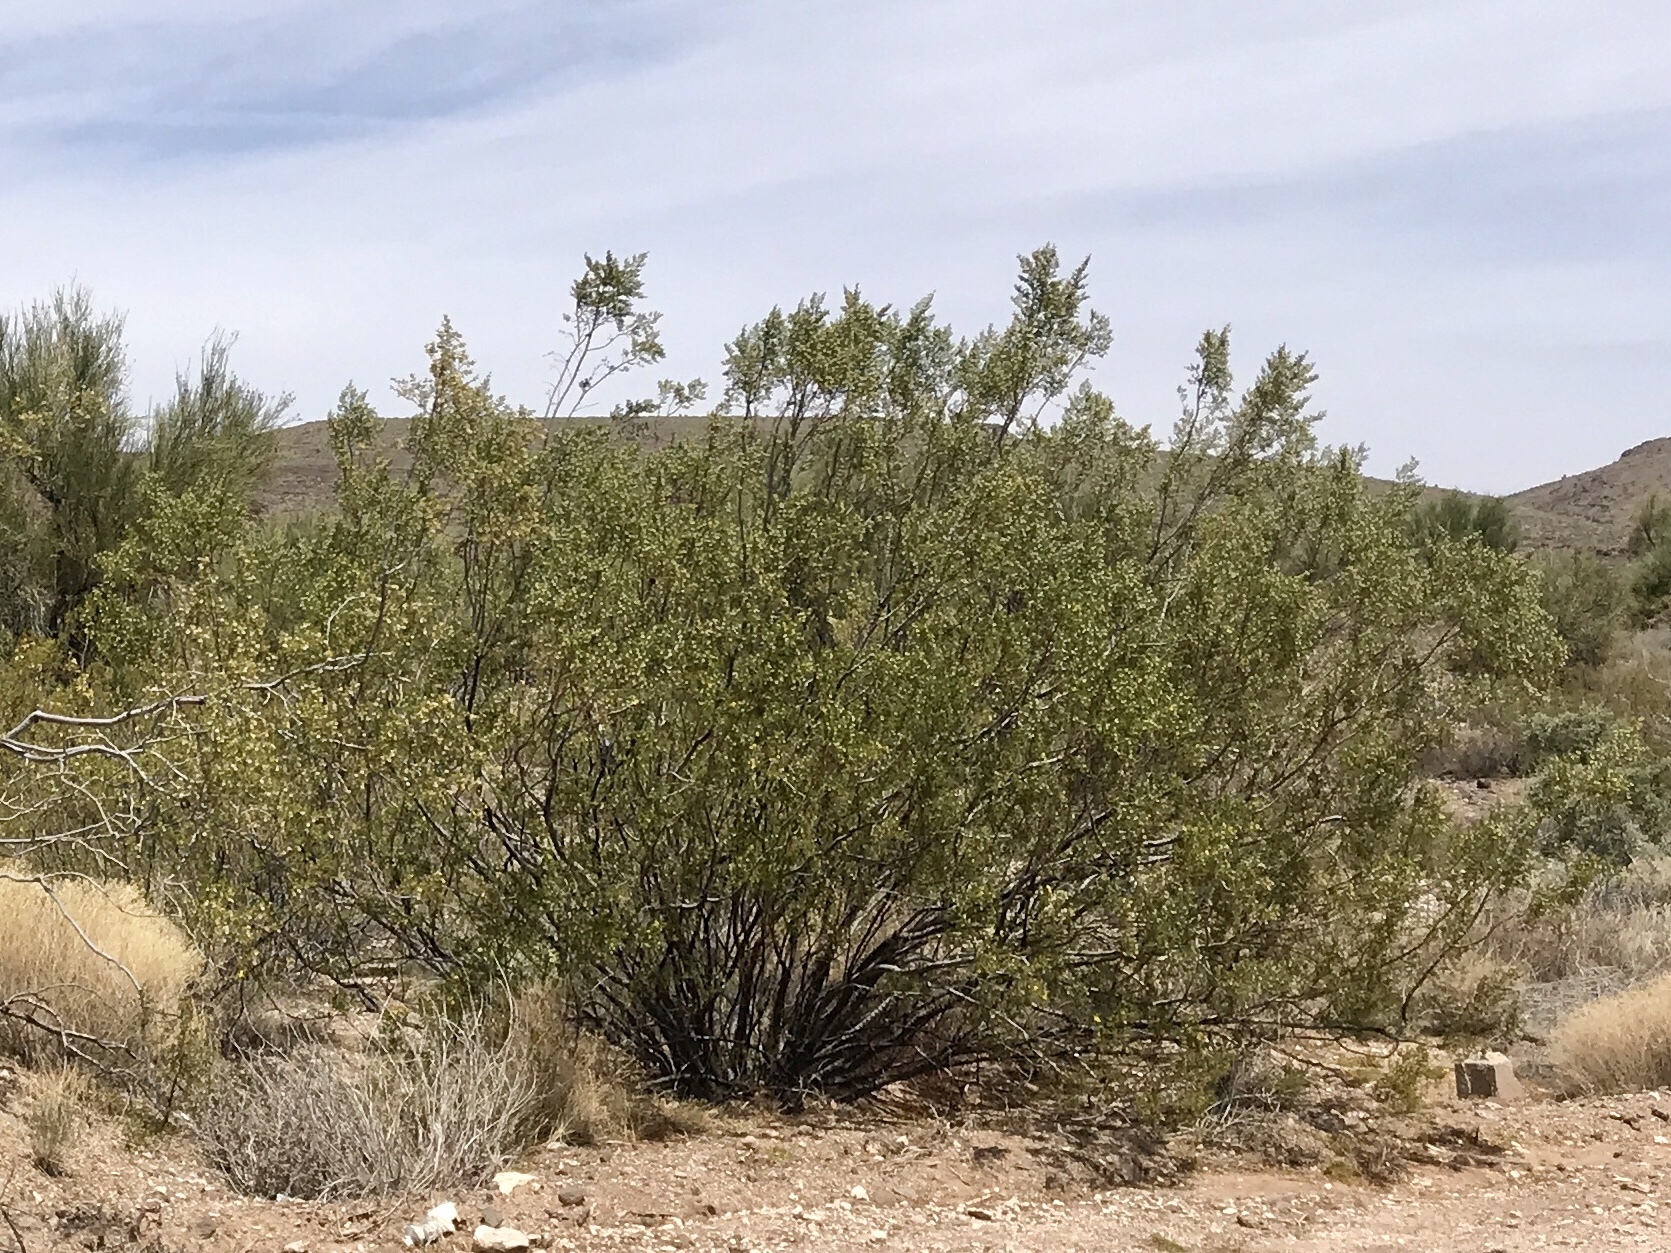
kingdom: Plantae
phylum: Tracheophyta
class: Magnoliopsida
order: Zygophyllales
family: Zygophyllaceae
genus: Larrea
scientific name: Larrea tridentata
